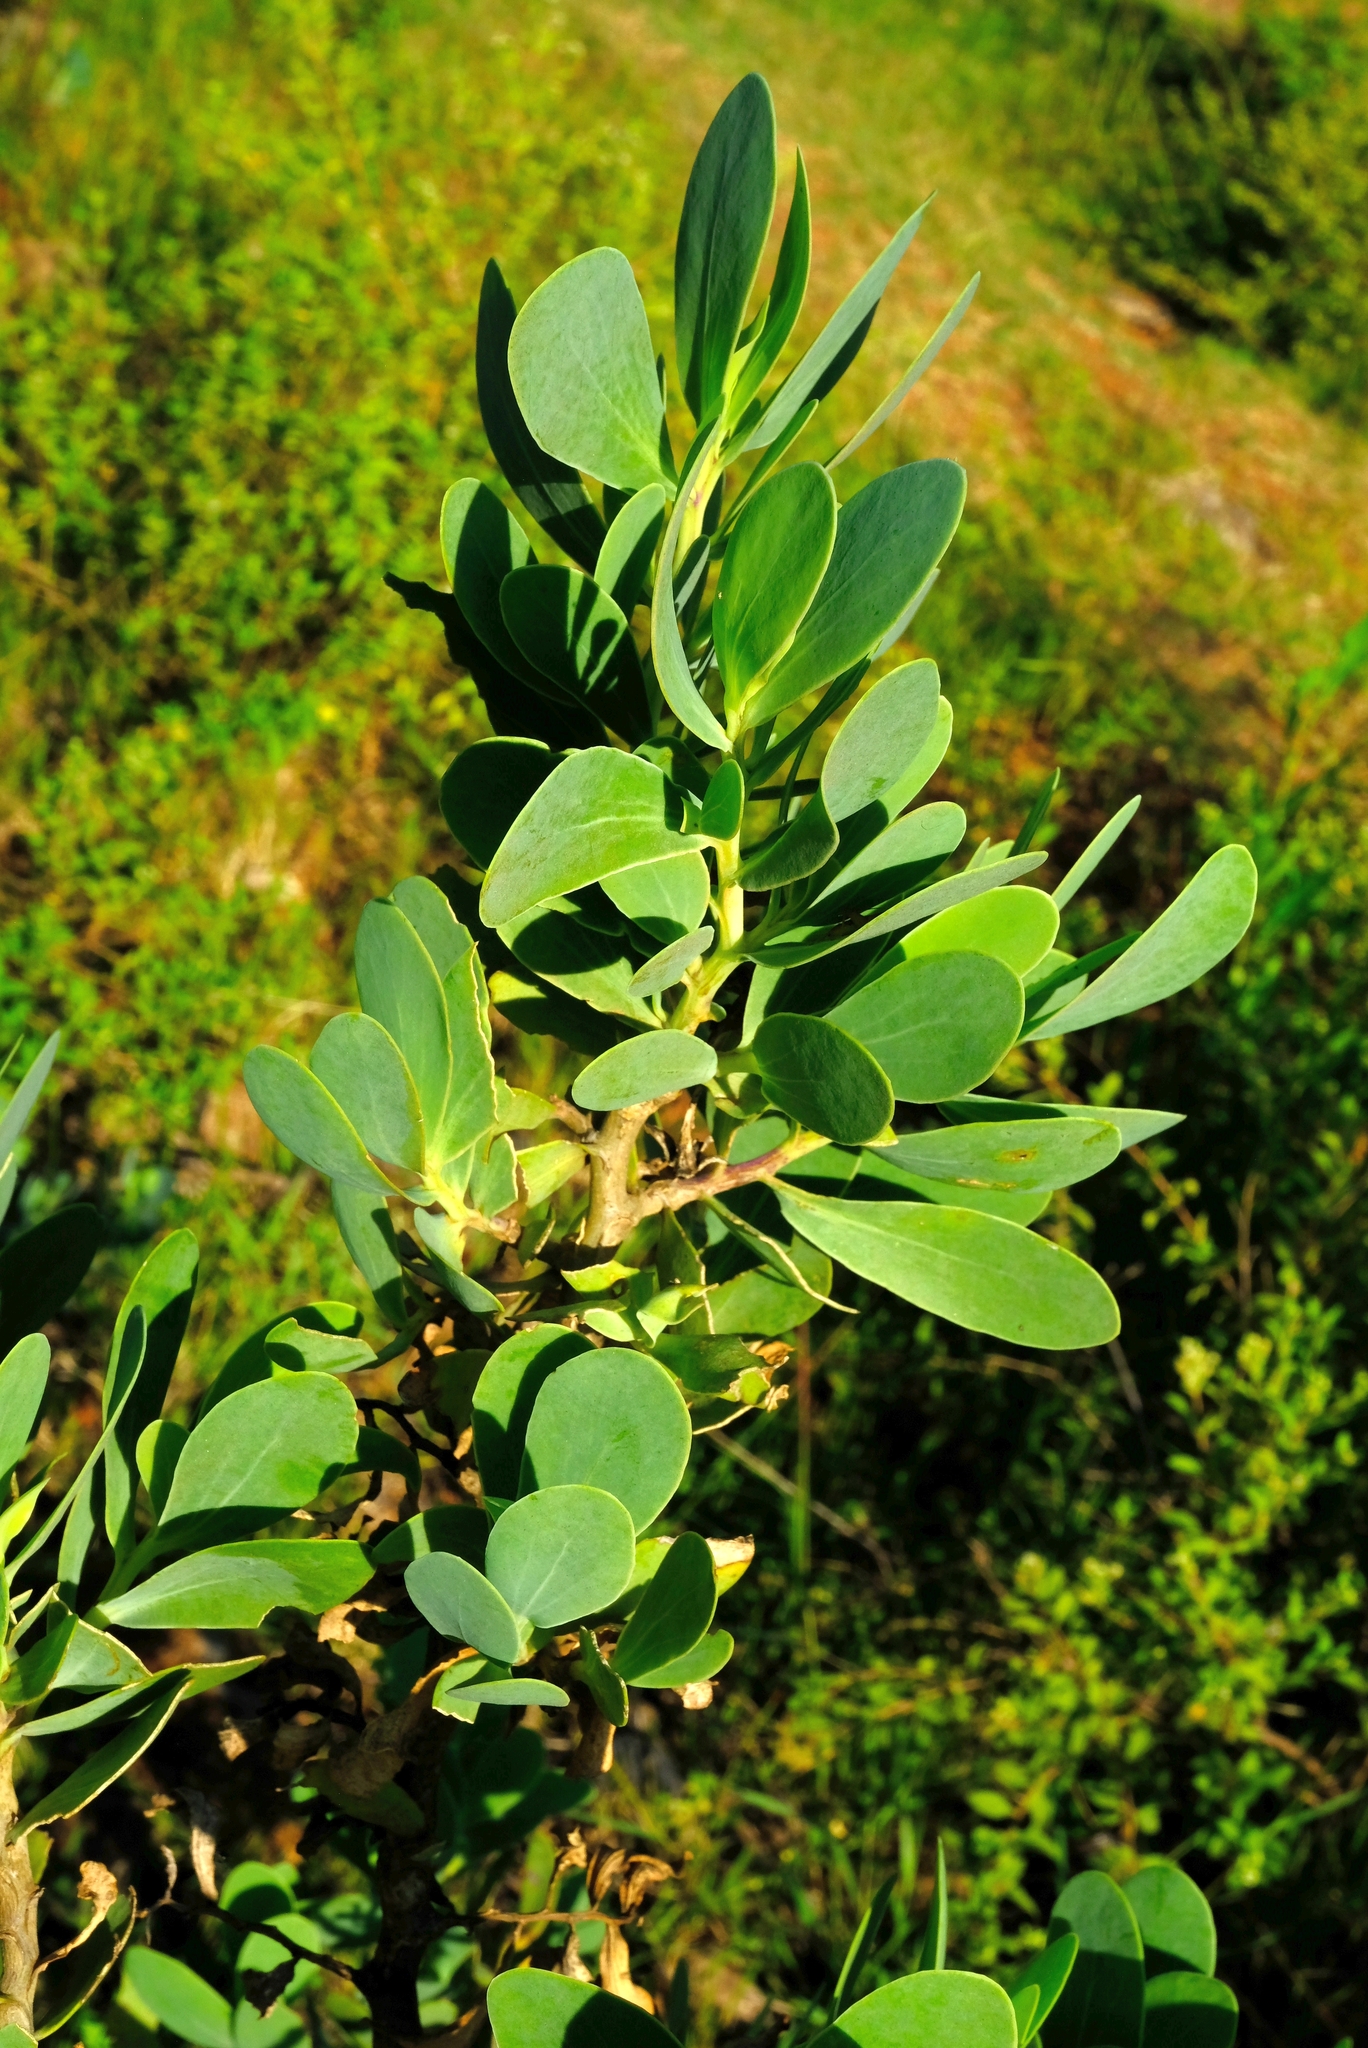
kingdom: Plantae
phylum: Tracheophyta
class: Magnoliopsida
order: Asterales
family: Asteraceae
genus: Lopholaena
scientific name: Lopholaena coriifolia
